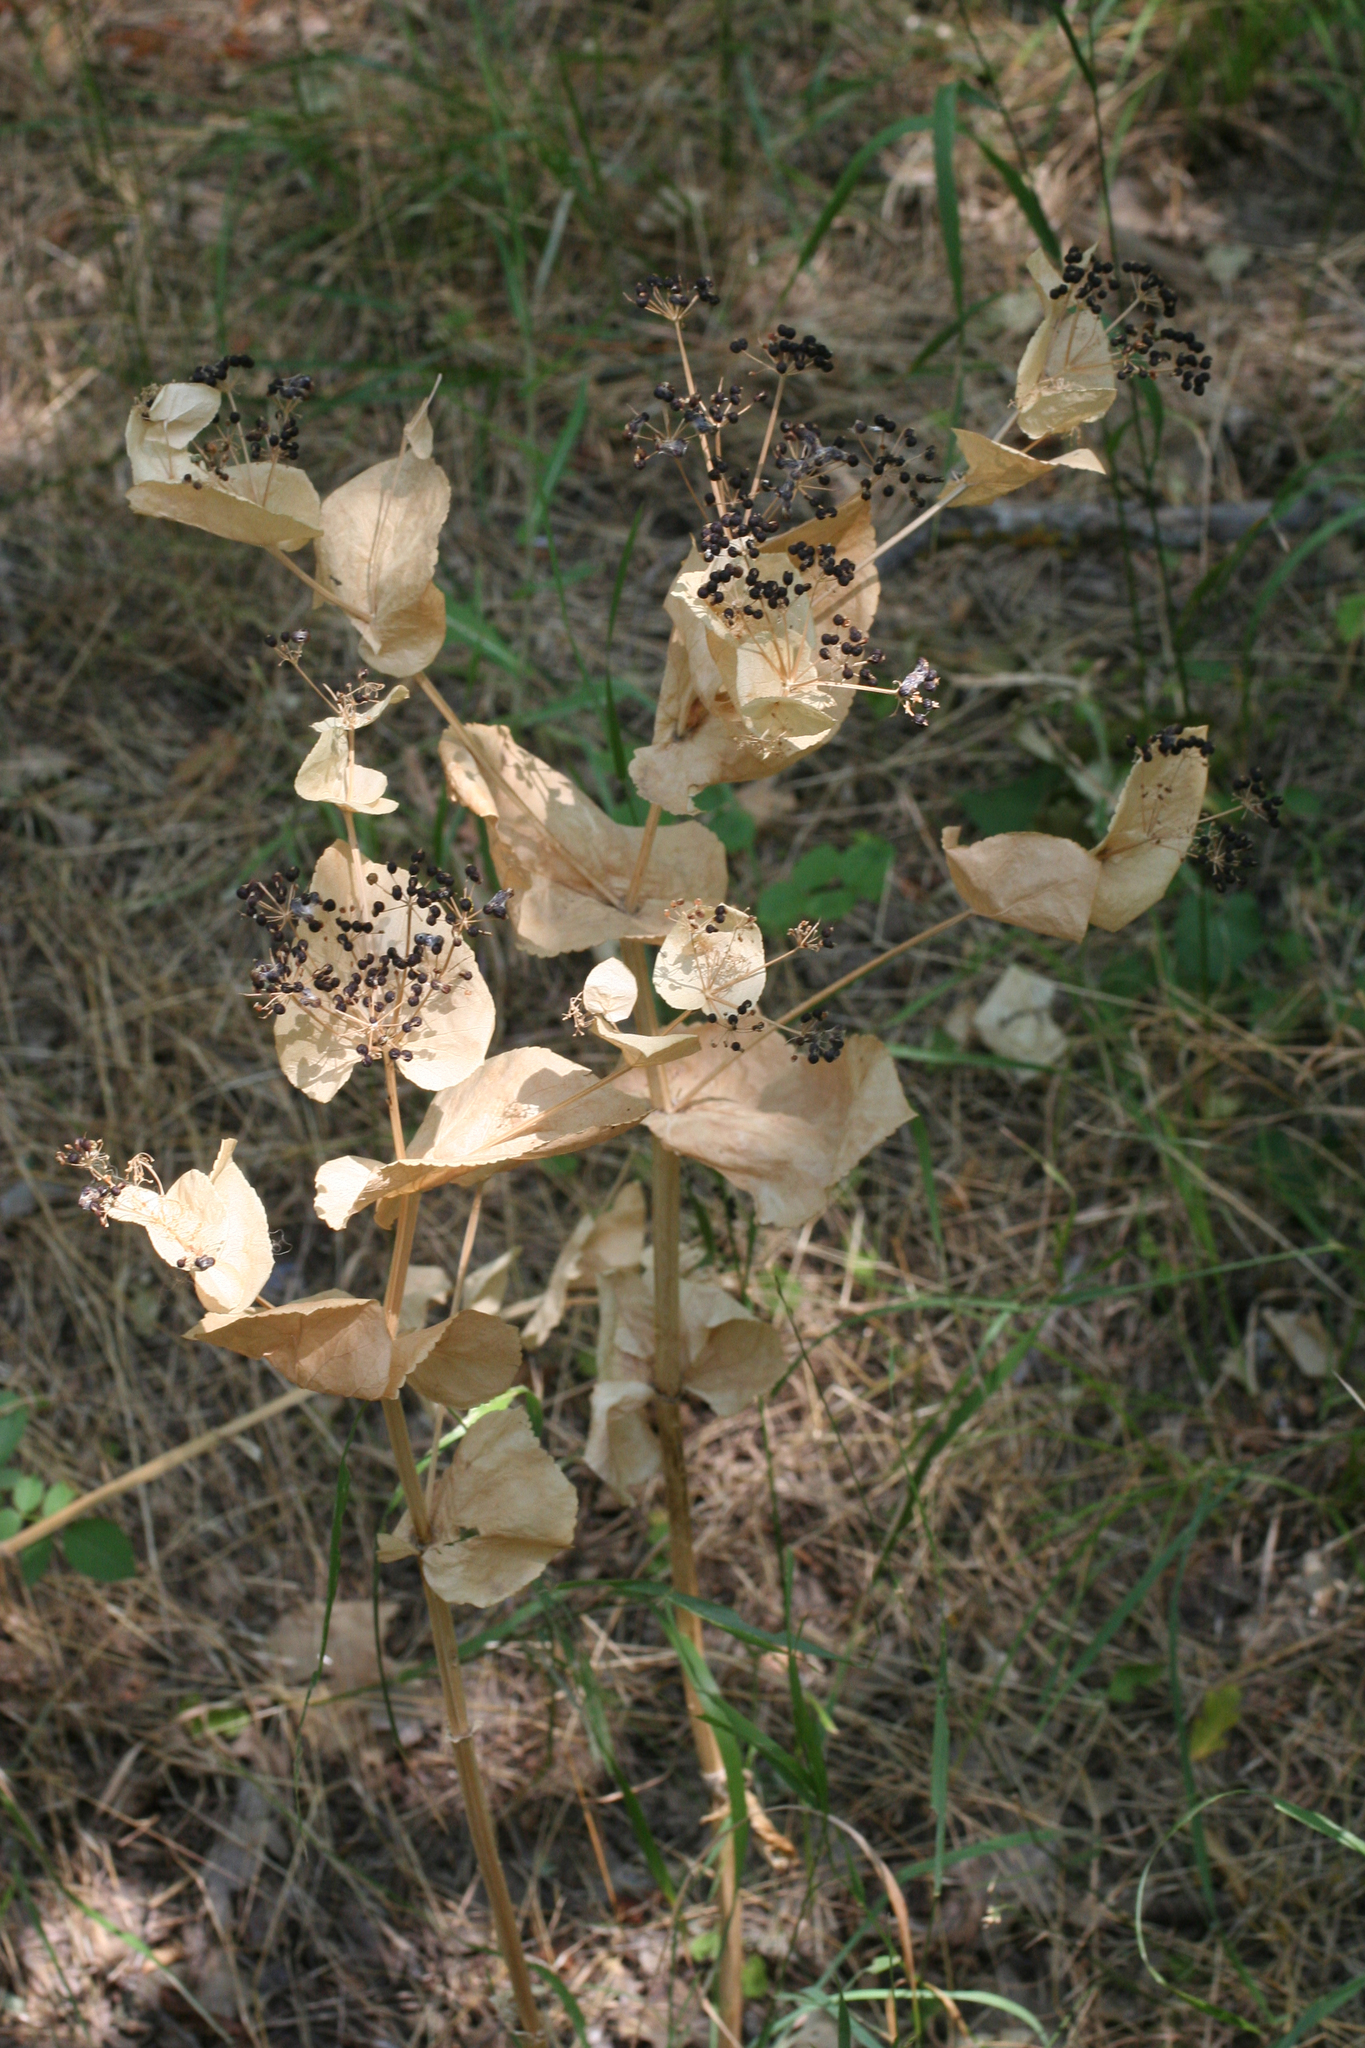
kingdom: Plantae
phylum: Tracheophyta
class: Magnoliopsida
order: Apiales
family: Apiaceae
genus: Smyrnium
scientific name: Smyrnium perfoliatum
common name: Perfoliate alexanders
